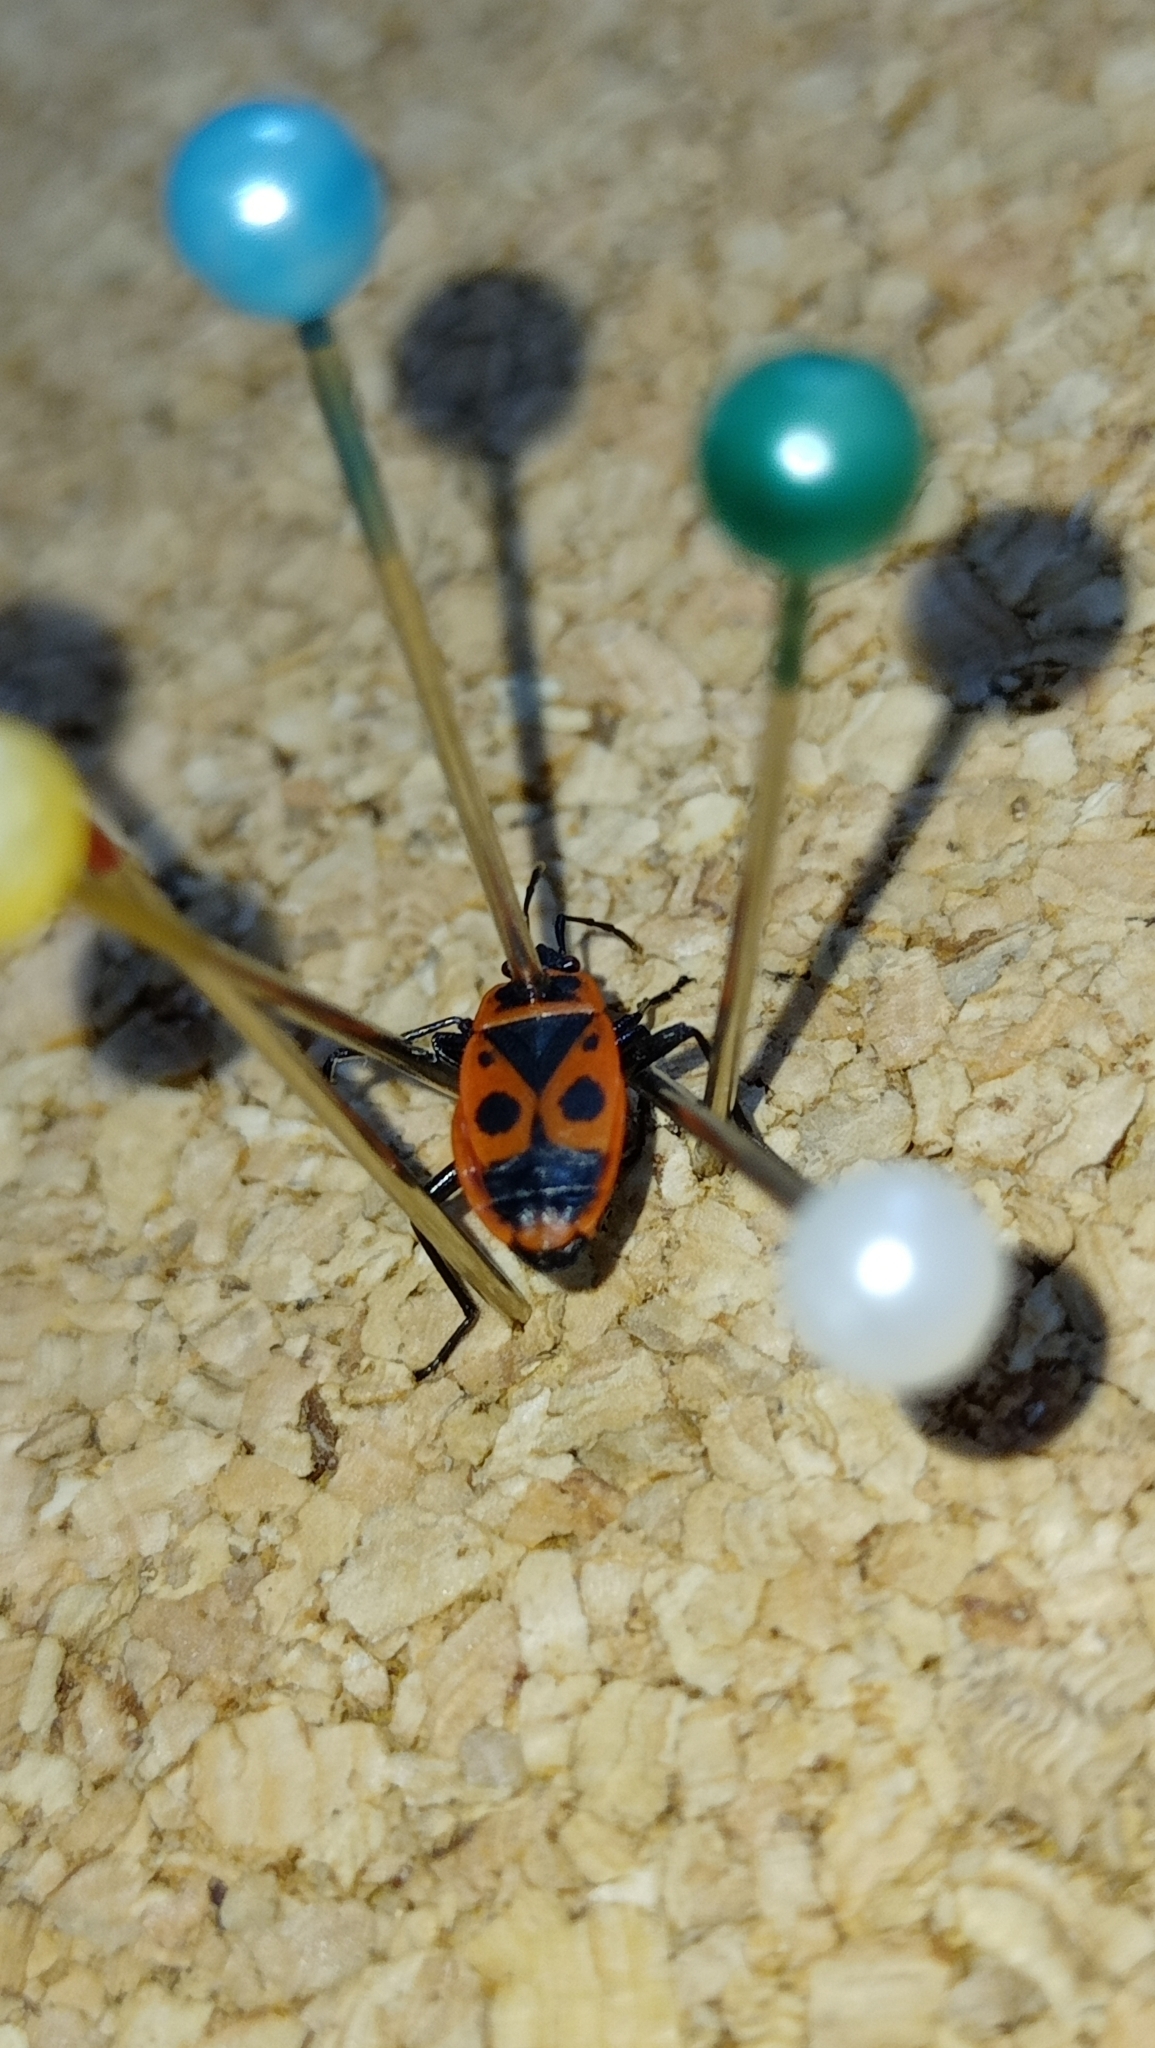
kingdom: Animalia
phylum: Arthropoda
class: Insecta
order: Hemiptera
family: Pyrrhocoridae
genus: Pyrrhocoris
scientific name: Pyrrhocoris apterus
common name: Firebug
